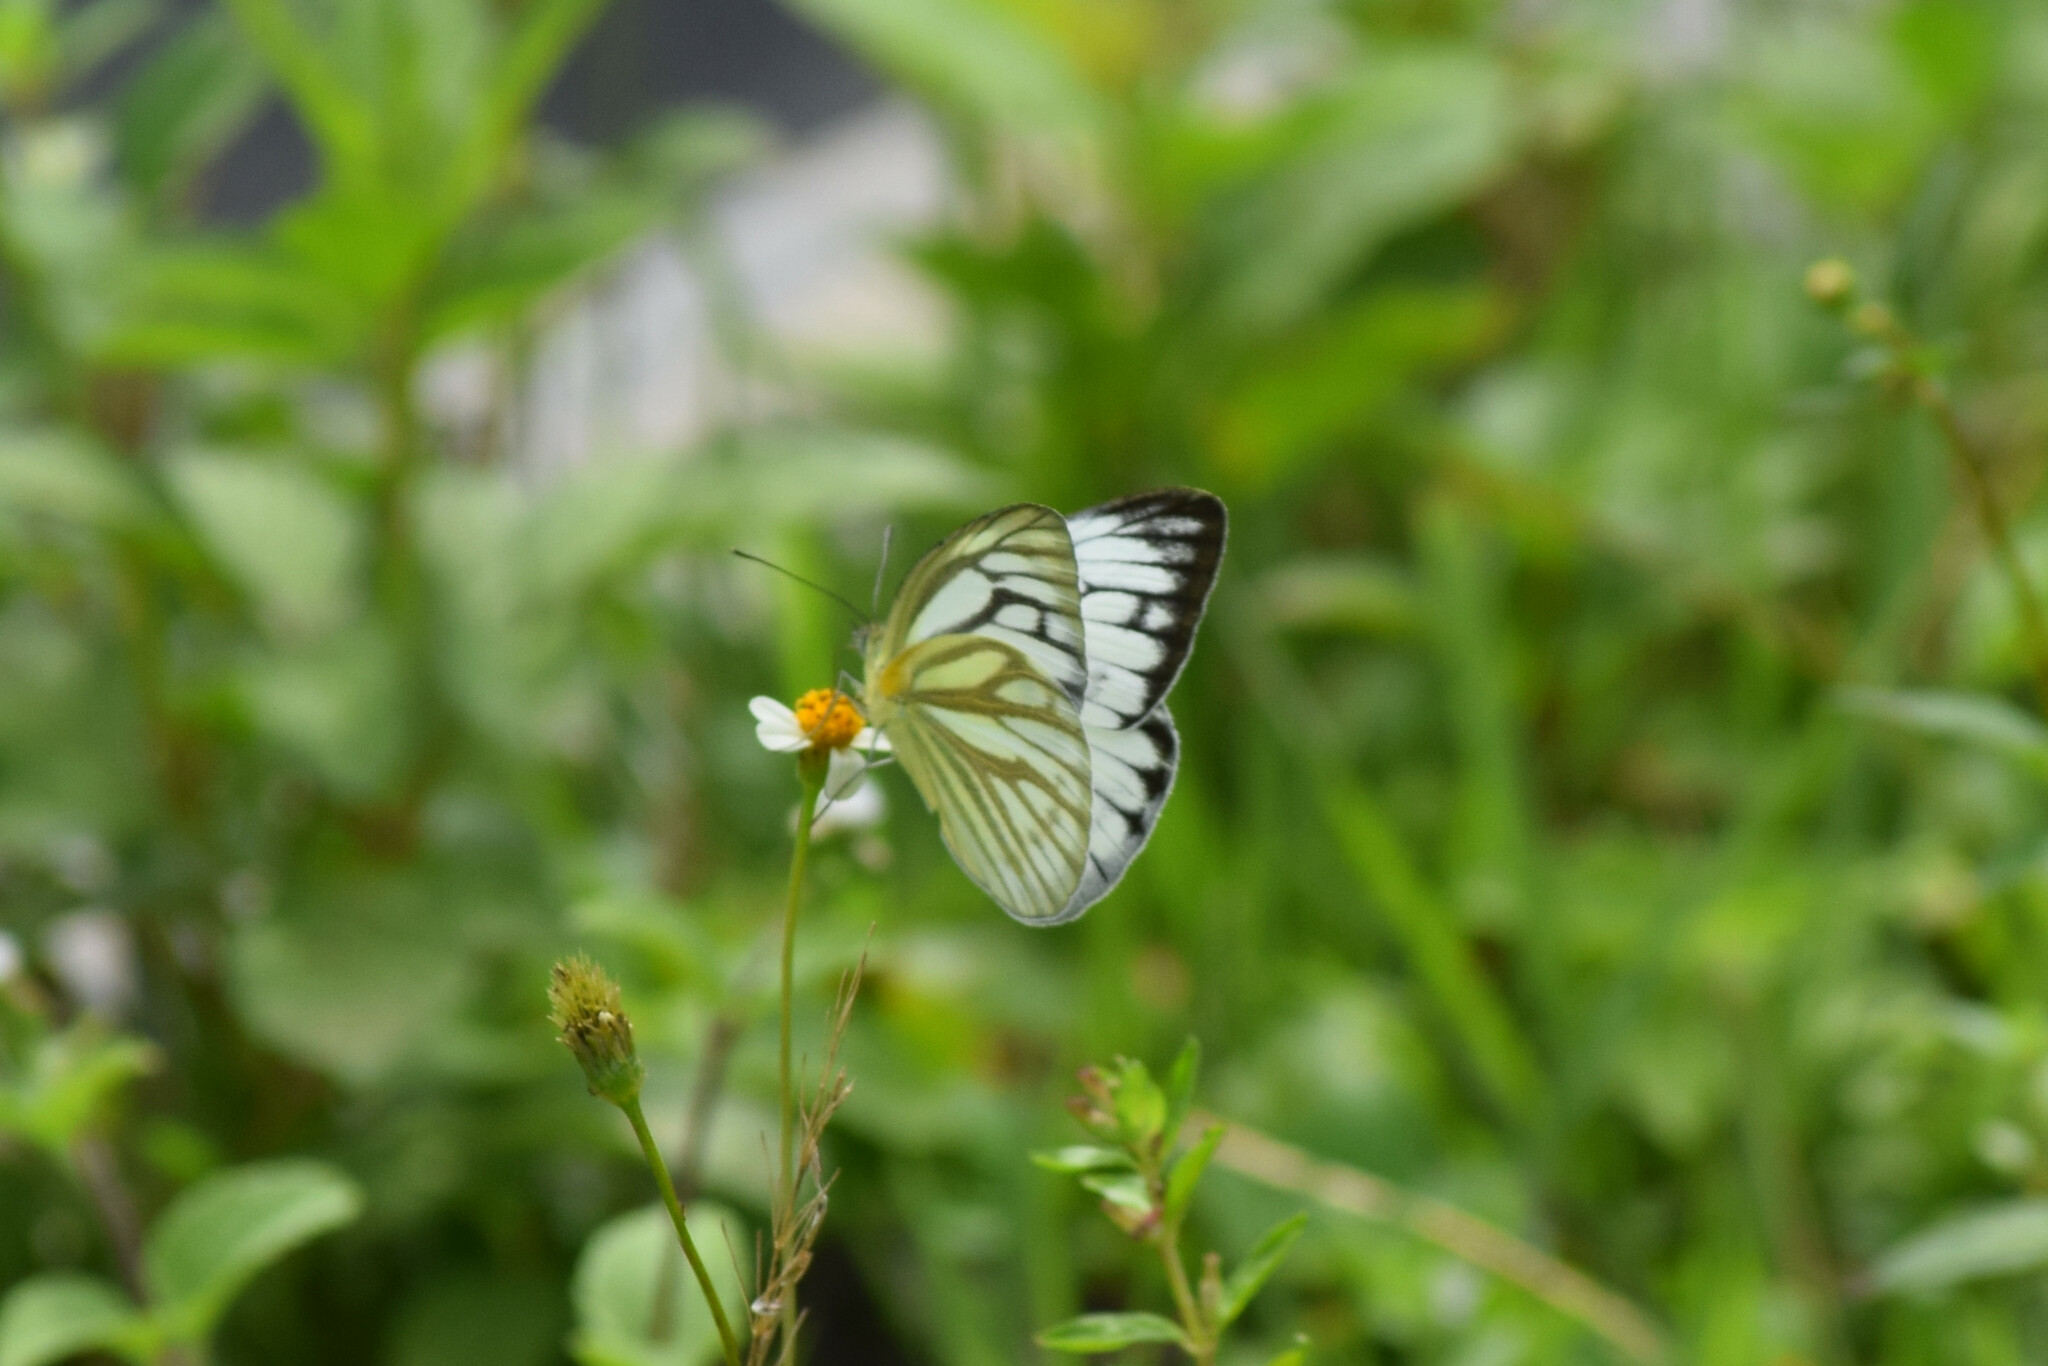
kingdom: Animalia
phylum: Arthropoda
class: Insecta
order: Lepidoptera
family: Pieridae
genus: Cepora
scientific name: Cepora nerissa
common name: Common gull
